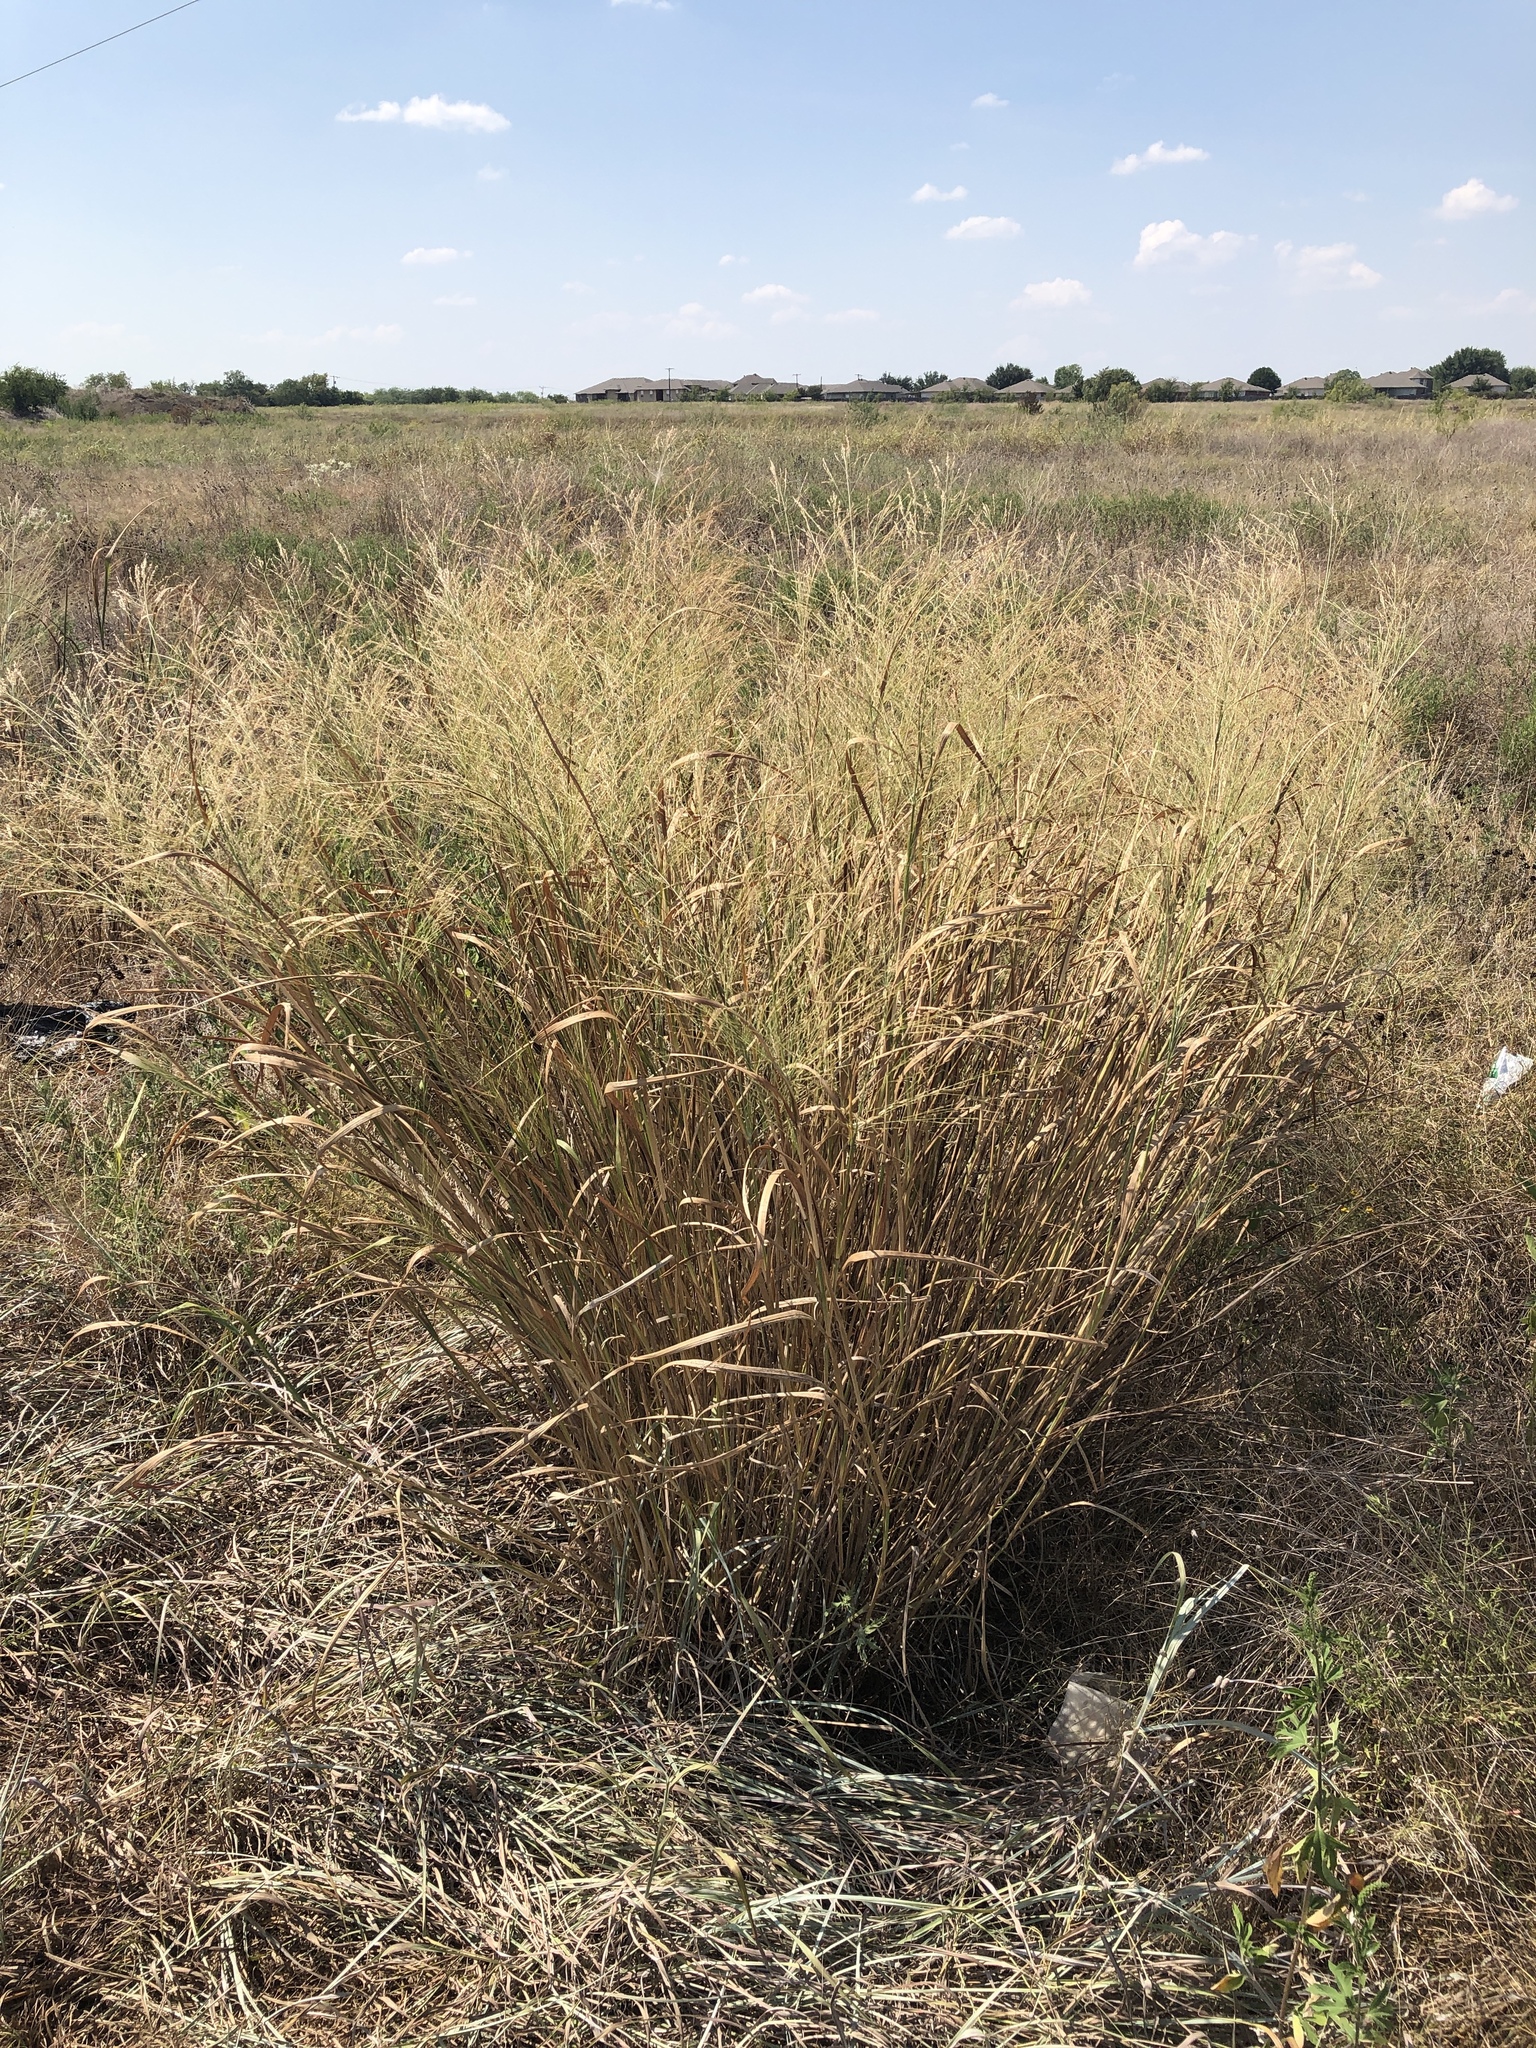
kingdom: Plantae
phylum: Tracheophyta
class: Liliopsida
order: Poales
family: Poaceae
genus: Panicum
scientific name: Panicum virgatum
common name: Switchgrass
